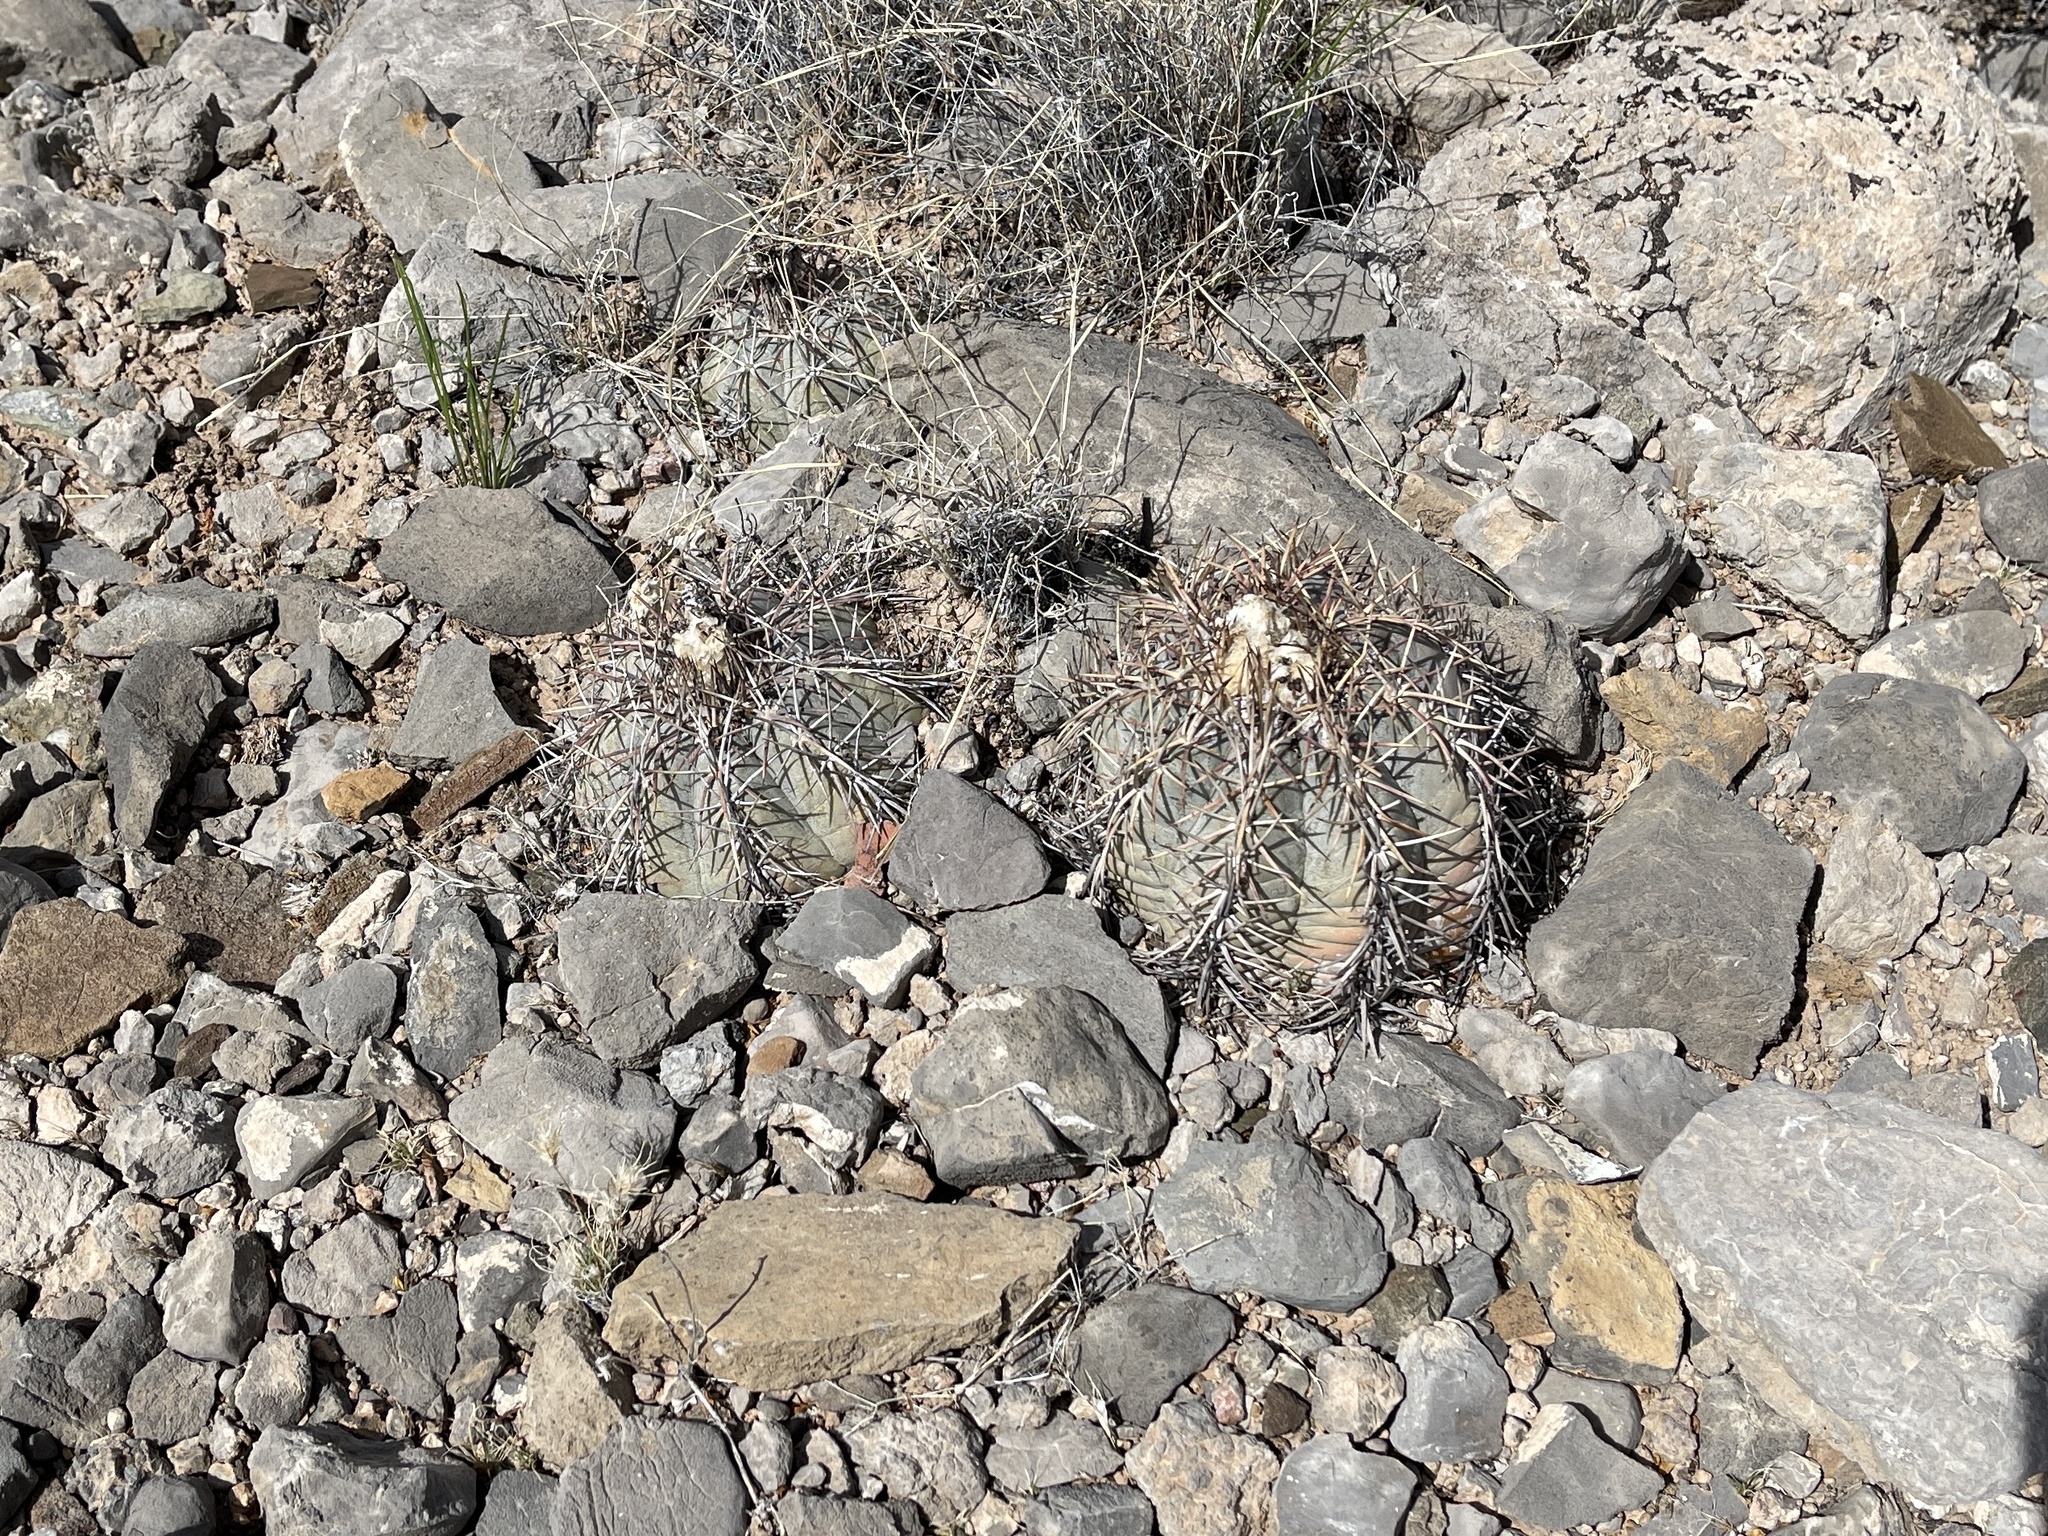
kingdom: Plantae
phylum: Tracheophyta
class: Magnoliopsida
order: Caryophyllales
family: Cactaceae
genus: Echinocactus
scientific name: Echinocactus horizonthalonius
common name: Devilshead
